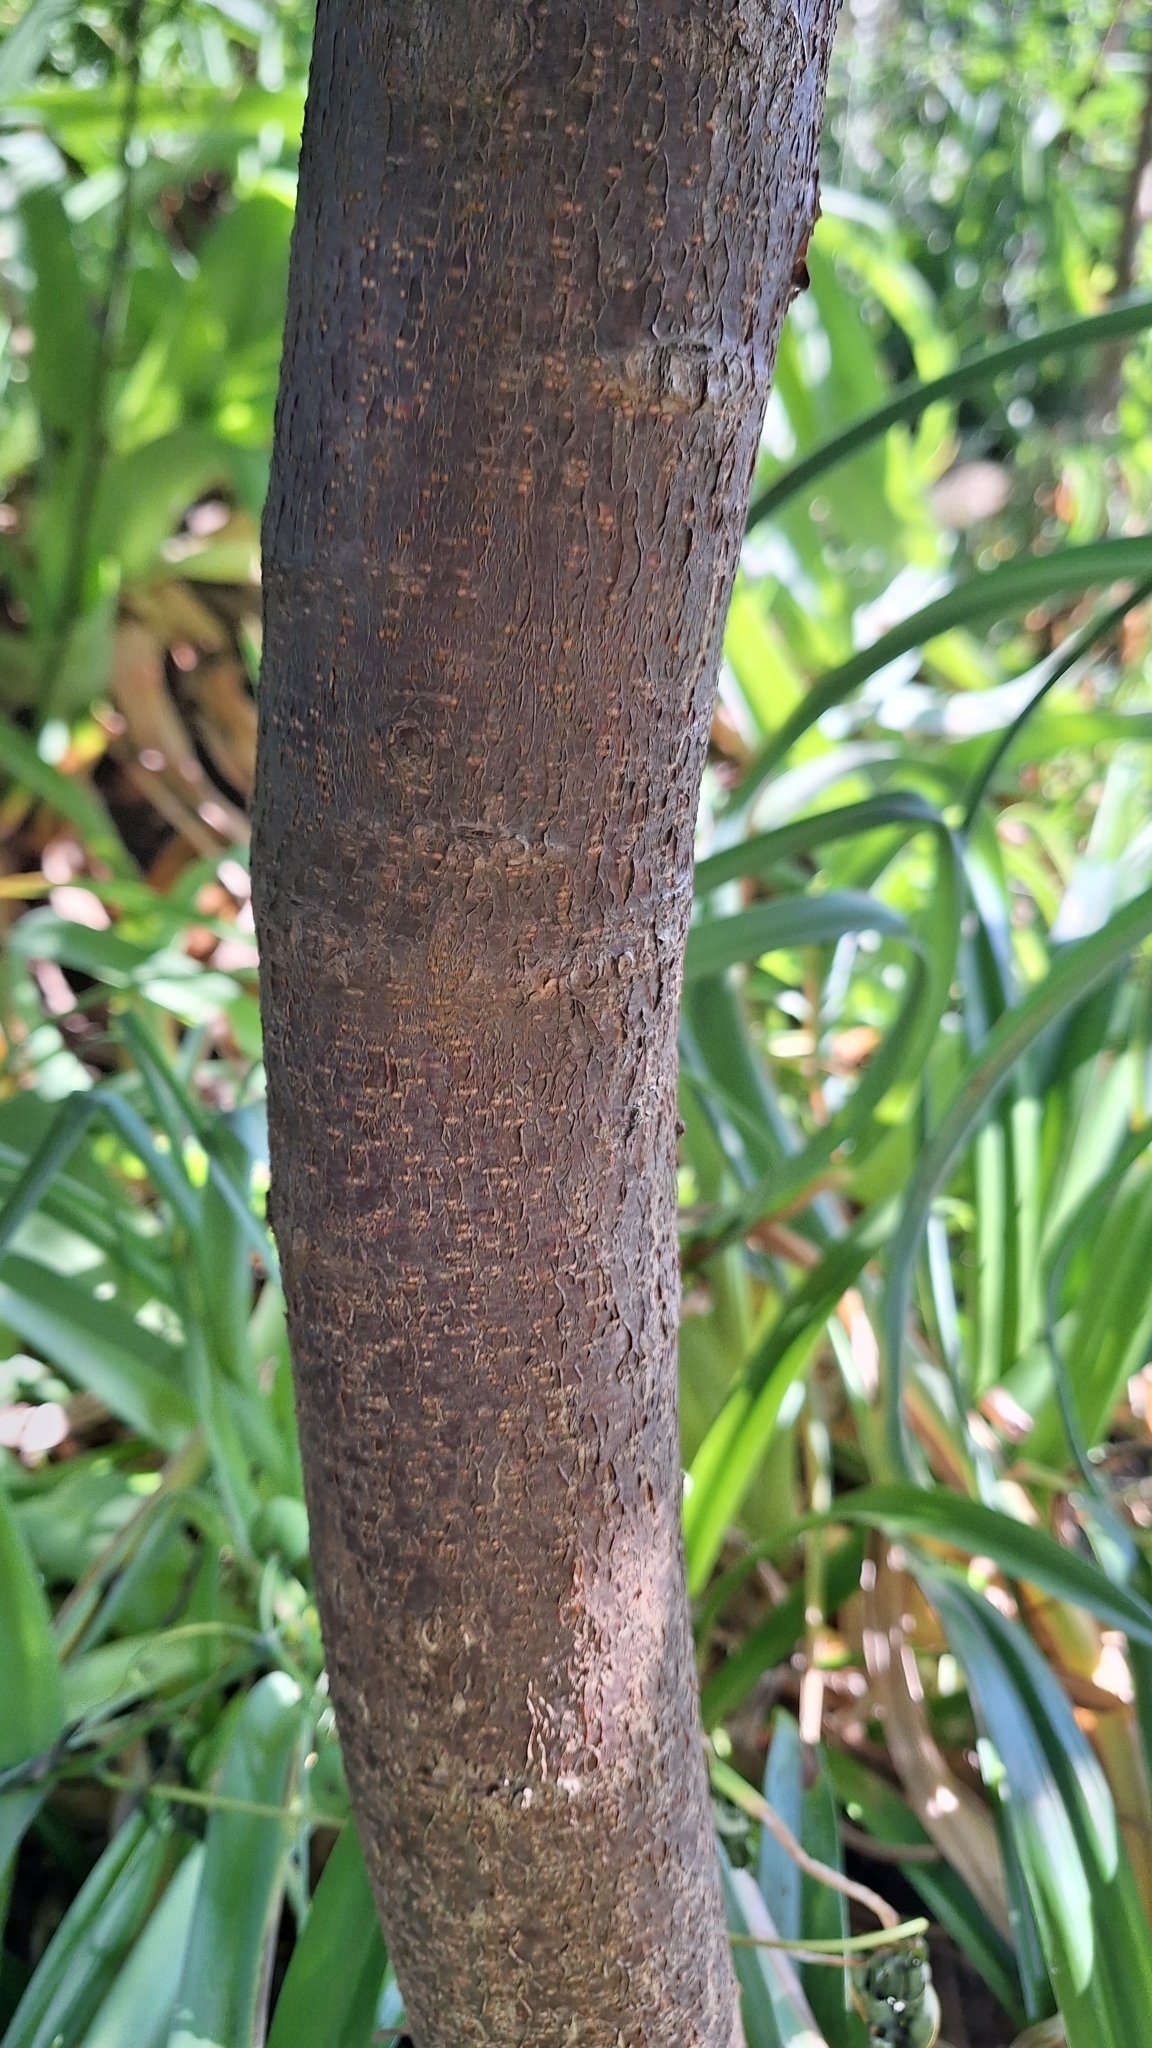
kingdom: Plantae
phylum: Tracheophyta
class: Magnoliopsida
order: Malpighiales
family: Euphorbiaceae
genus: Manihot
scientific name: Manihot grahamii
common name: Graham's manihot
